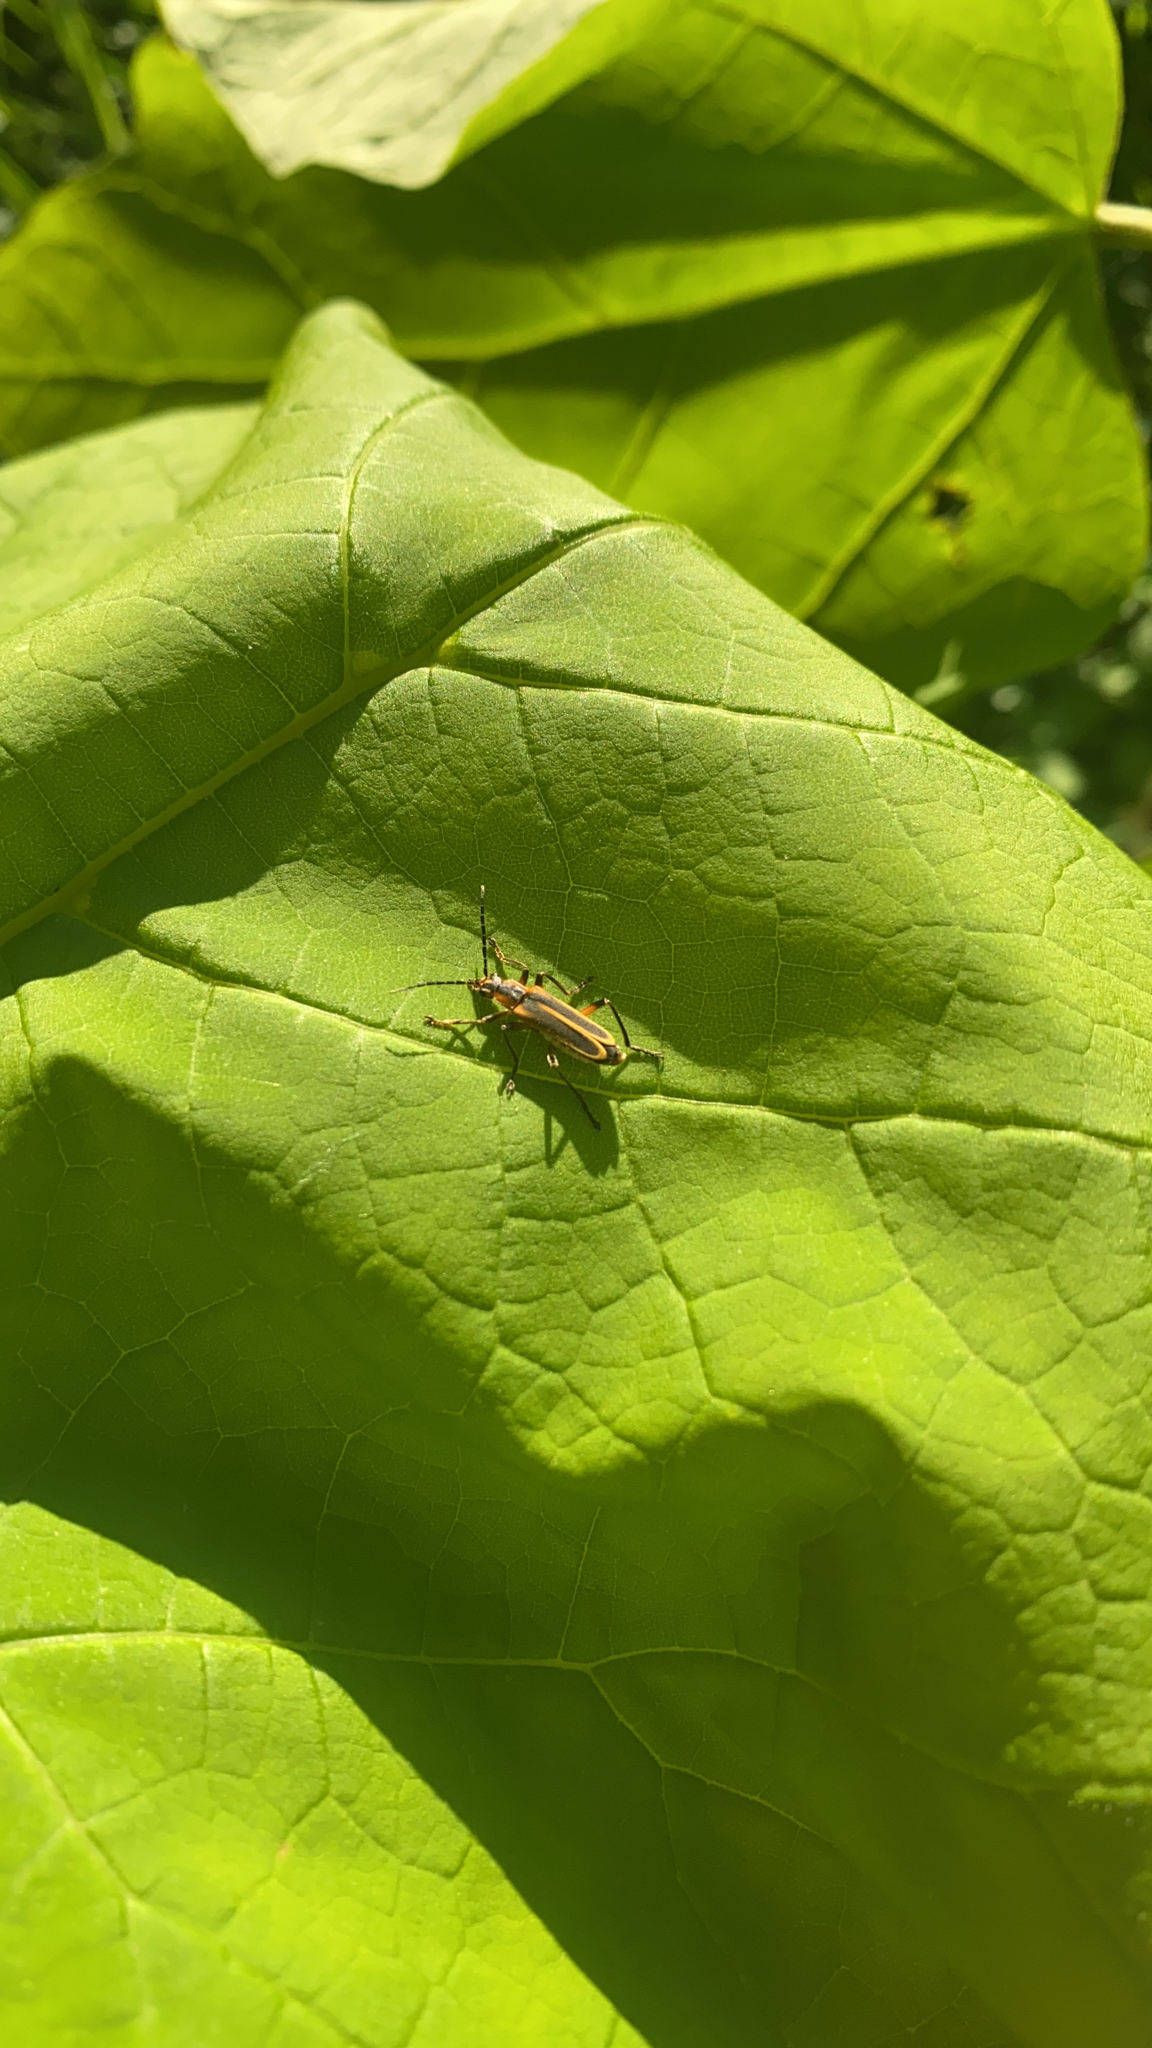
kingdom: Animalia
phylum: Arthropoda
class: Insecta
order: Coleoptera
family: Cantharidae
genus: Chauliognathus
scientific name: Chauliognathus marginatus
